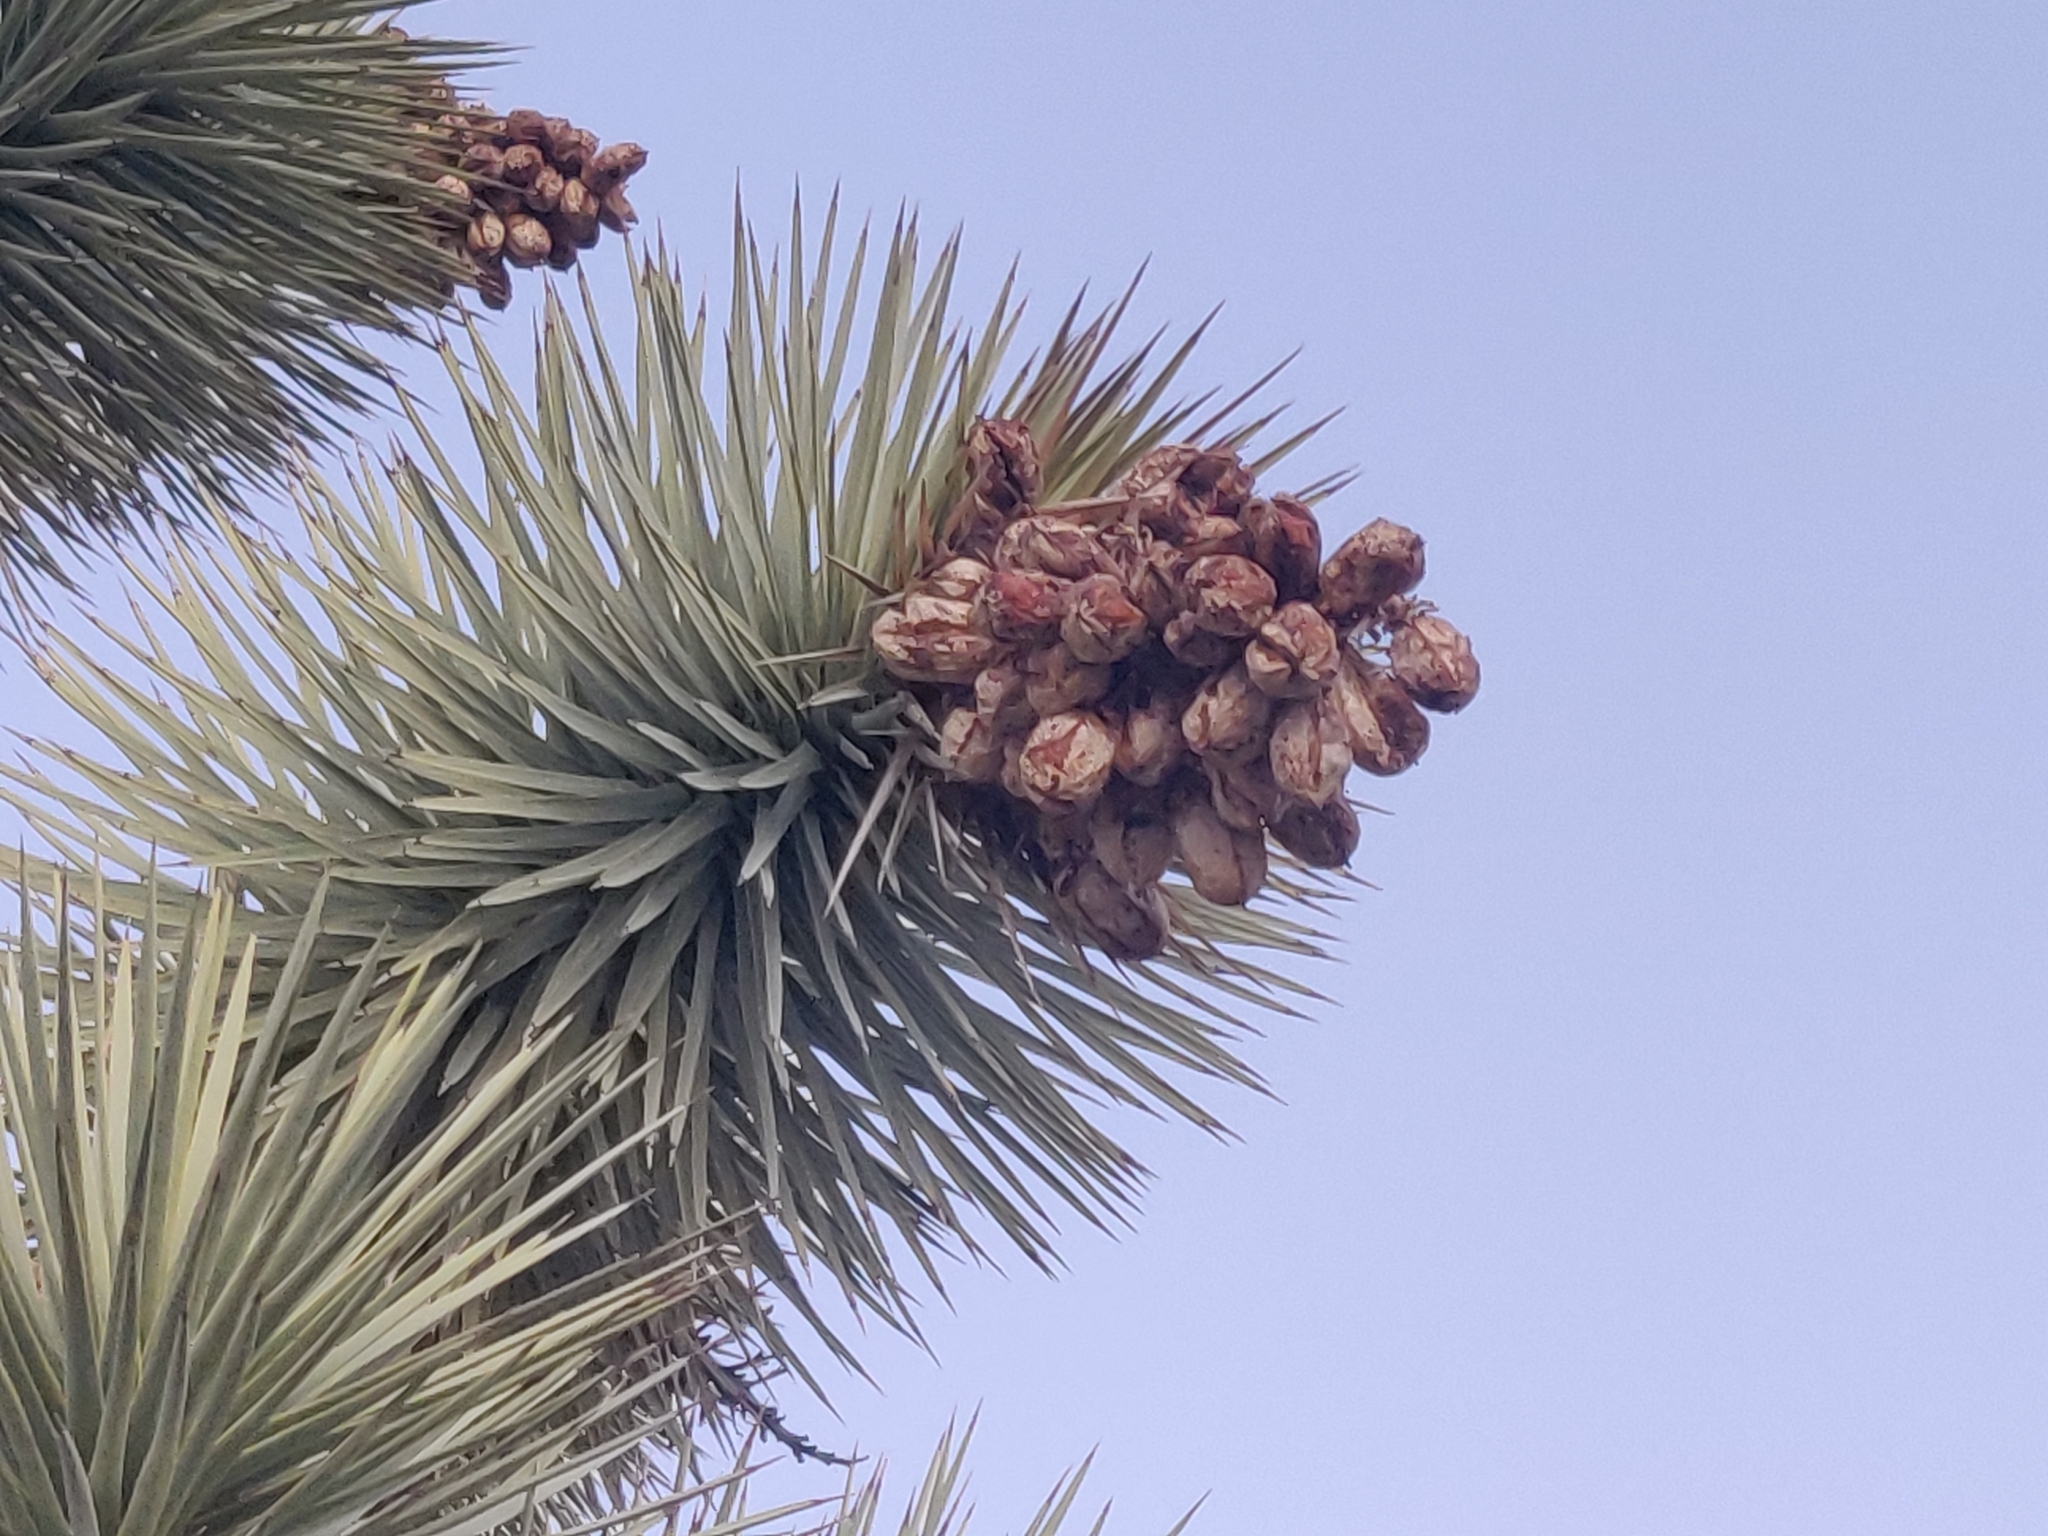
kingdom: Plantae
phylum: Tracheophyta
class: Liliopsida
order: Asparagales
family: Asparagaceae
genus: Yucca
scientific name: Yucca brevifolia
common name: Joshua tree
